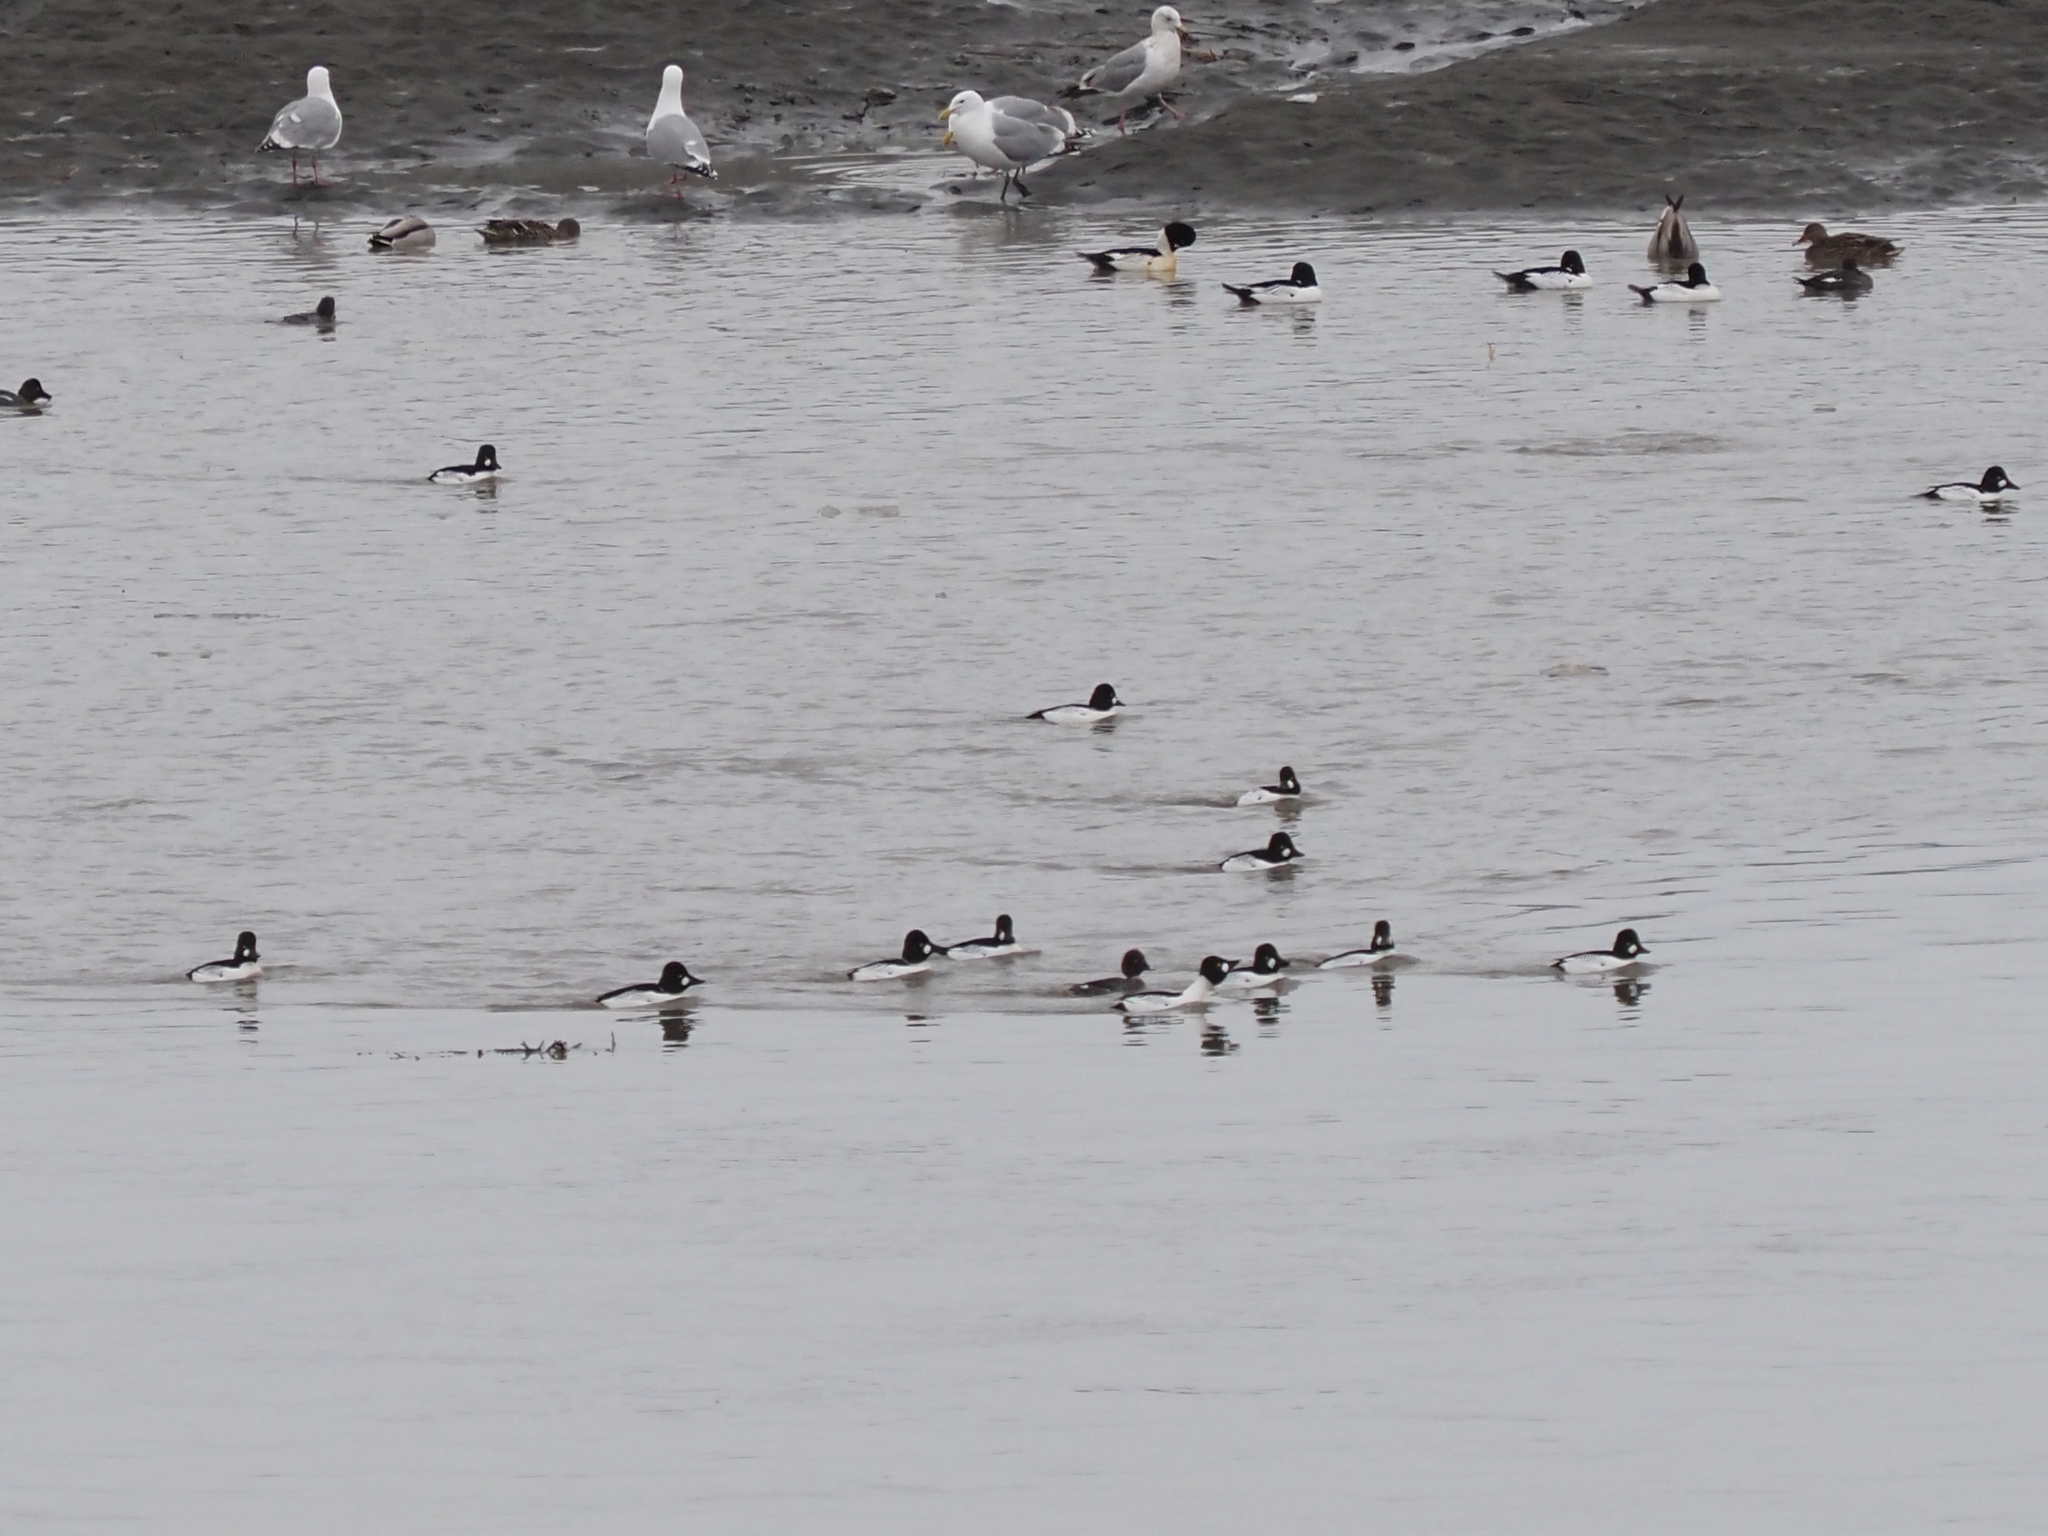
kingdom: Animalia
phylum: Chordata
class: Aves
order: Anseriformes
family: Anatidae
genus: Bucephala
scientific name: Bucephala clangula
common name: Common goldeneye
